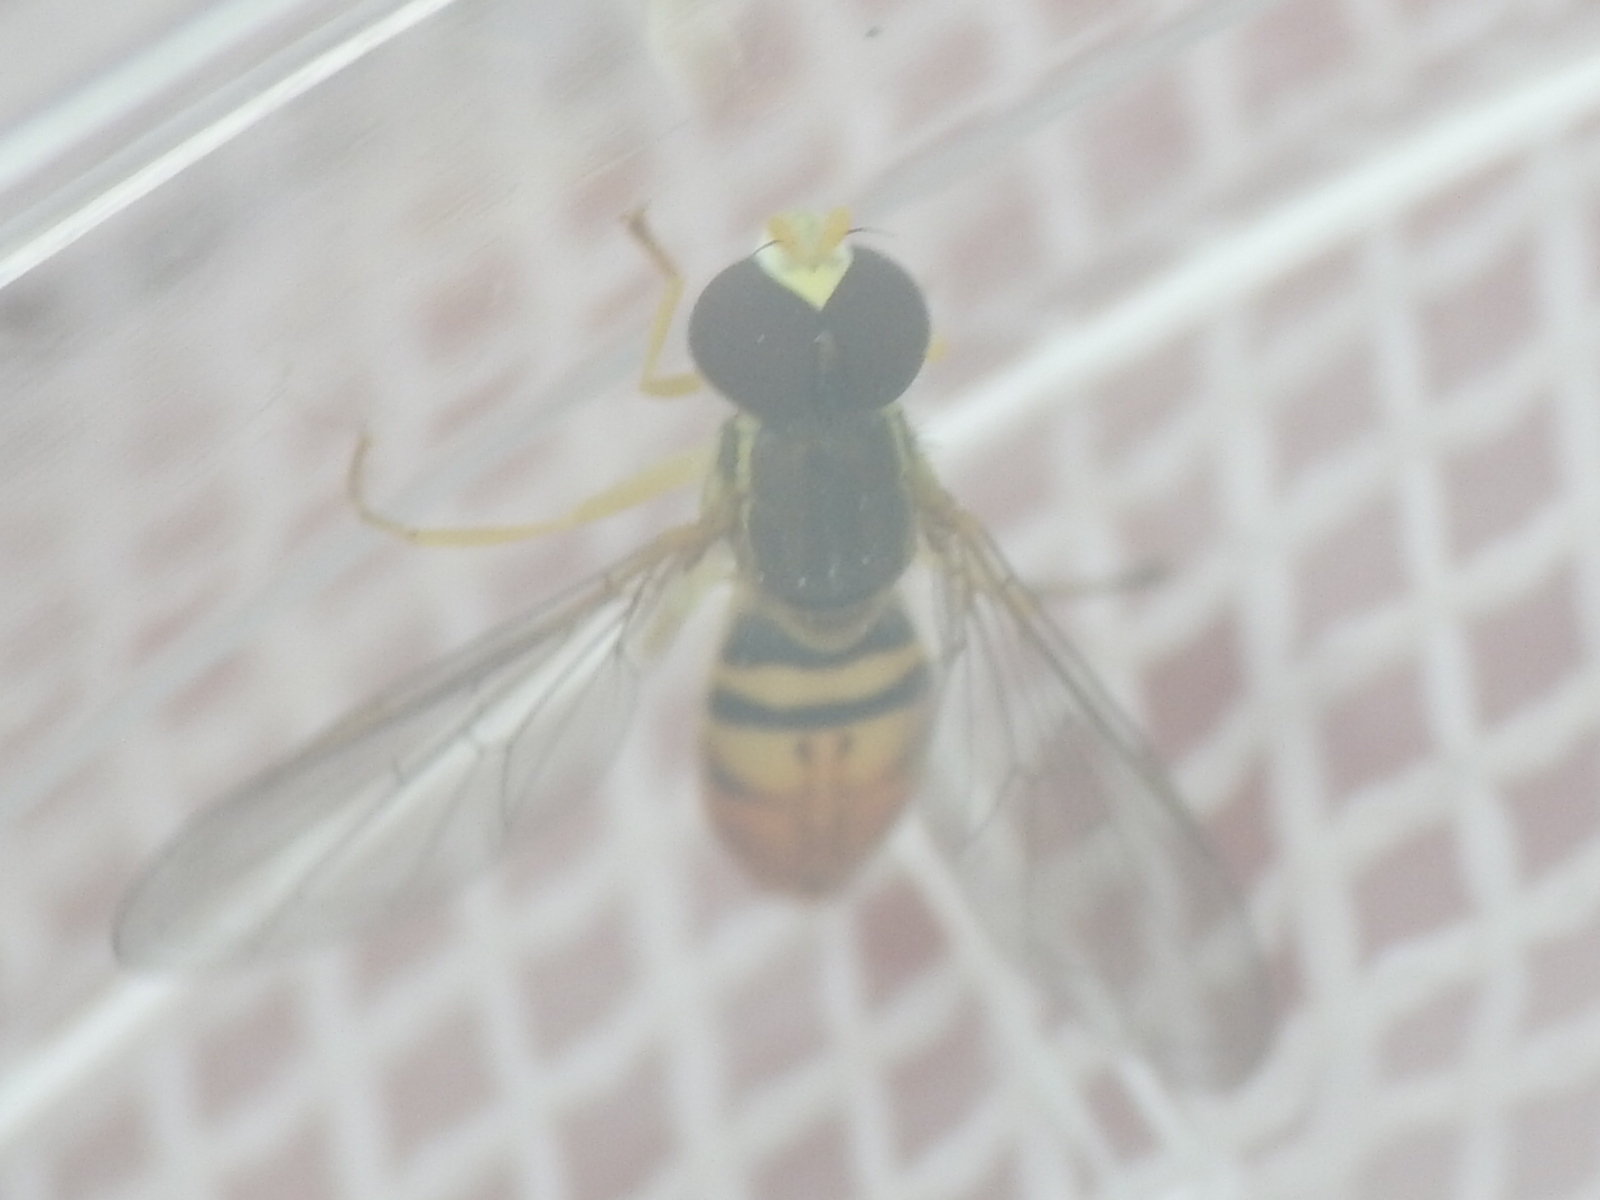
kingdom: Animalia
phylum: Arthropoda
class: Insecta
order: Diptera
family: Syrphidae
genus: Toxomerus
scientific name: Toxomerus marginatus
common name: Syrphid fly
